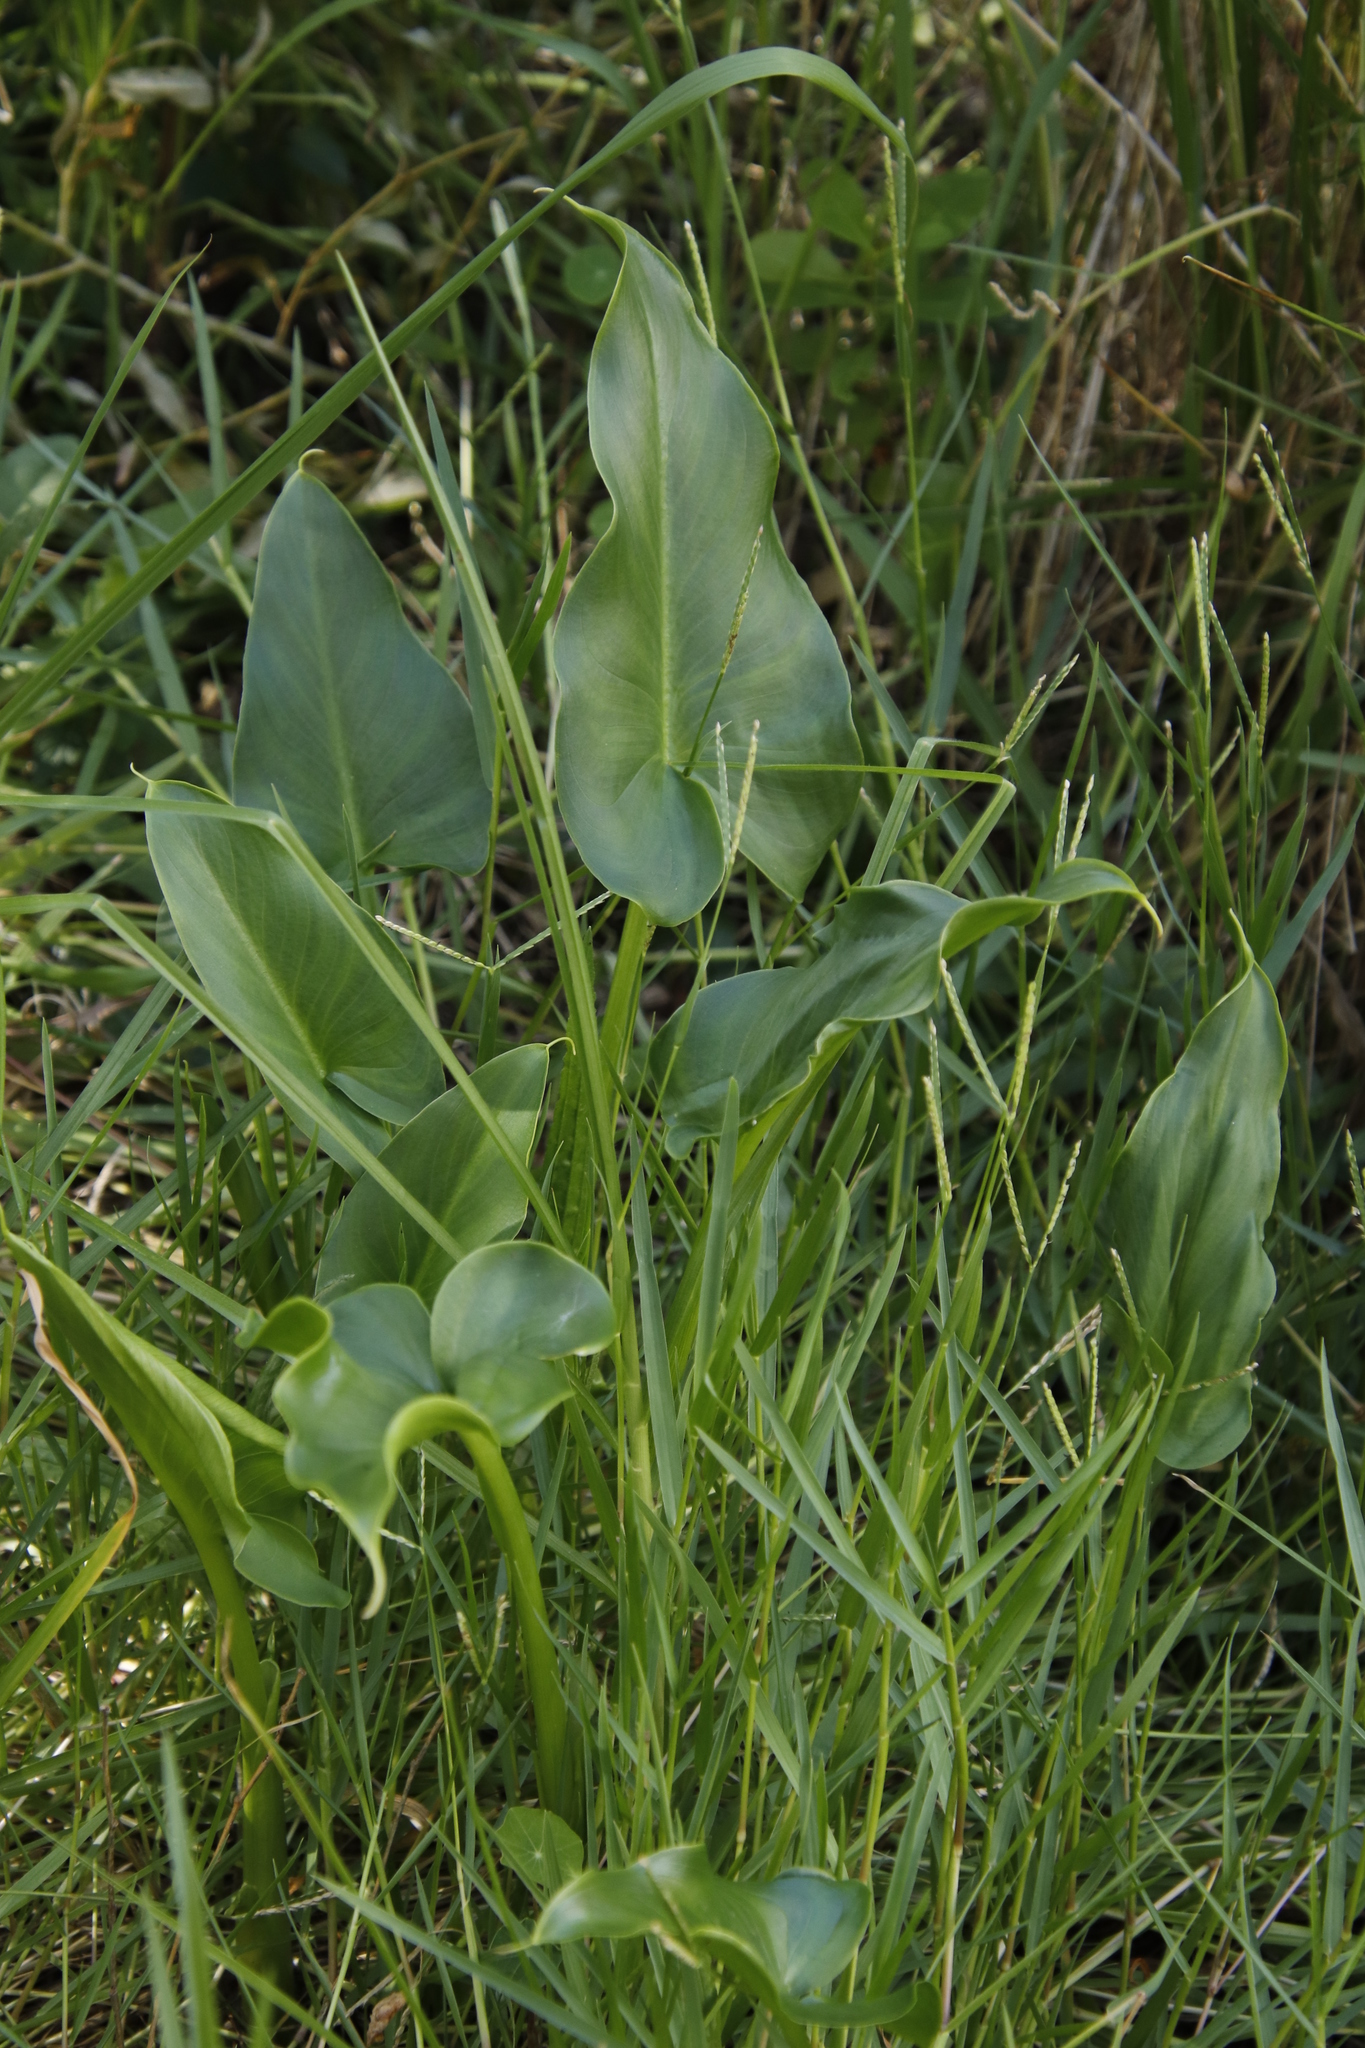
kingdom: Plantae
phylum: Tracheophyta
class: Liliopsida
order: Alismatales
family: Araceae
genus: Zantedeschia
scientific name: Zantedeschia aethiopica
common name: Altar-lily
